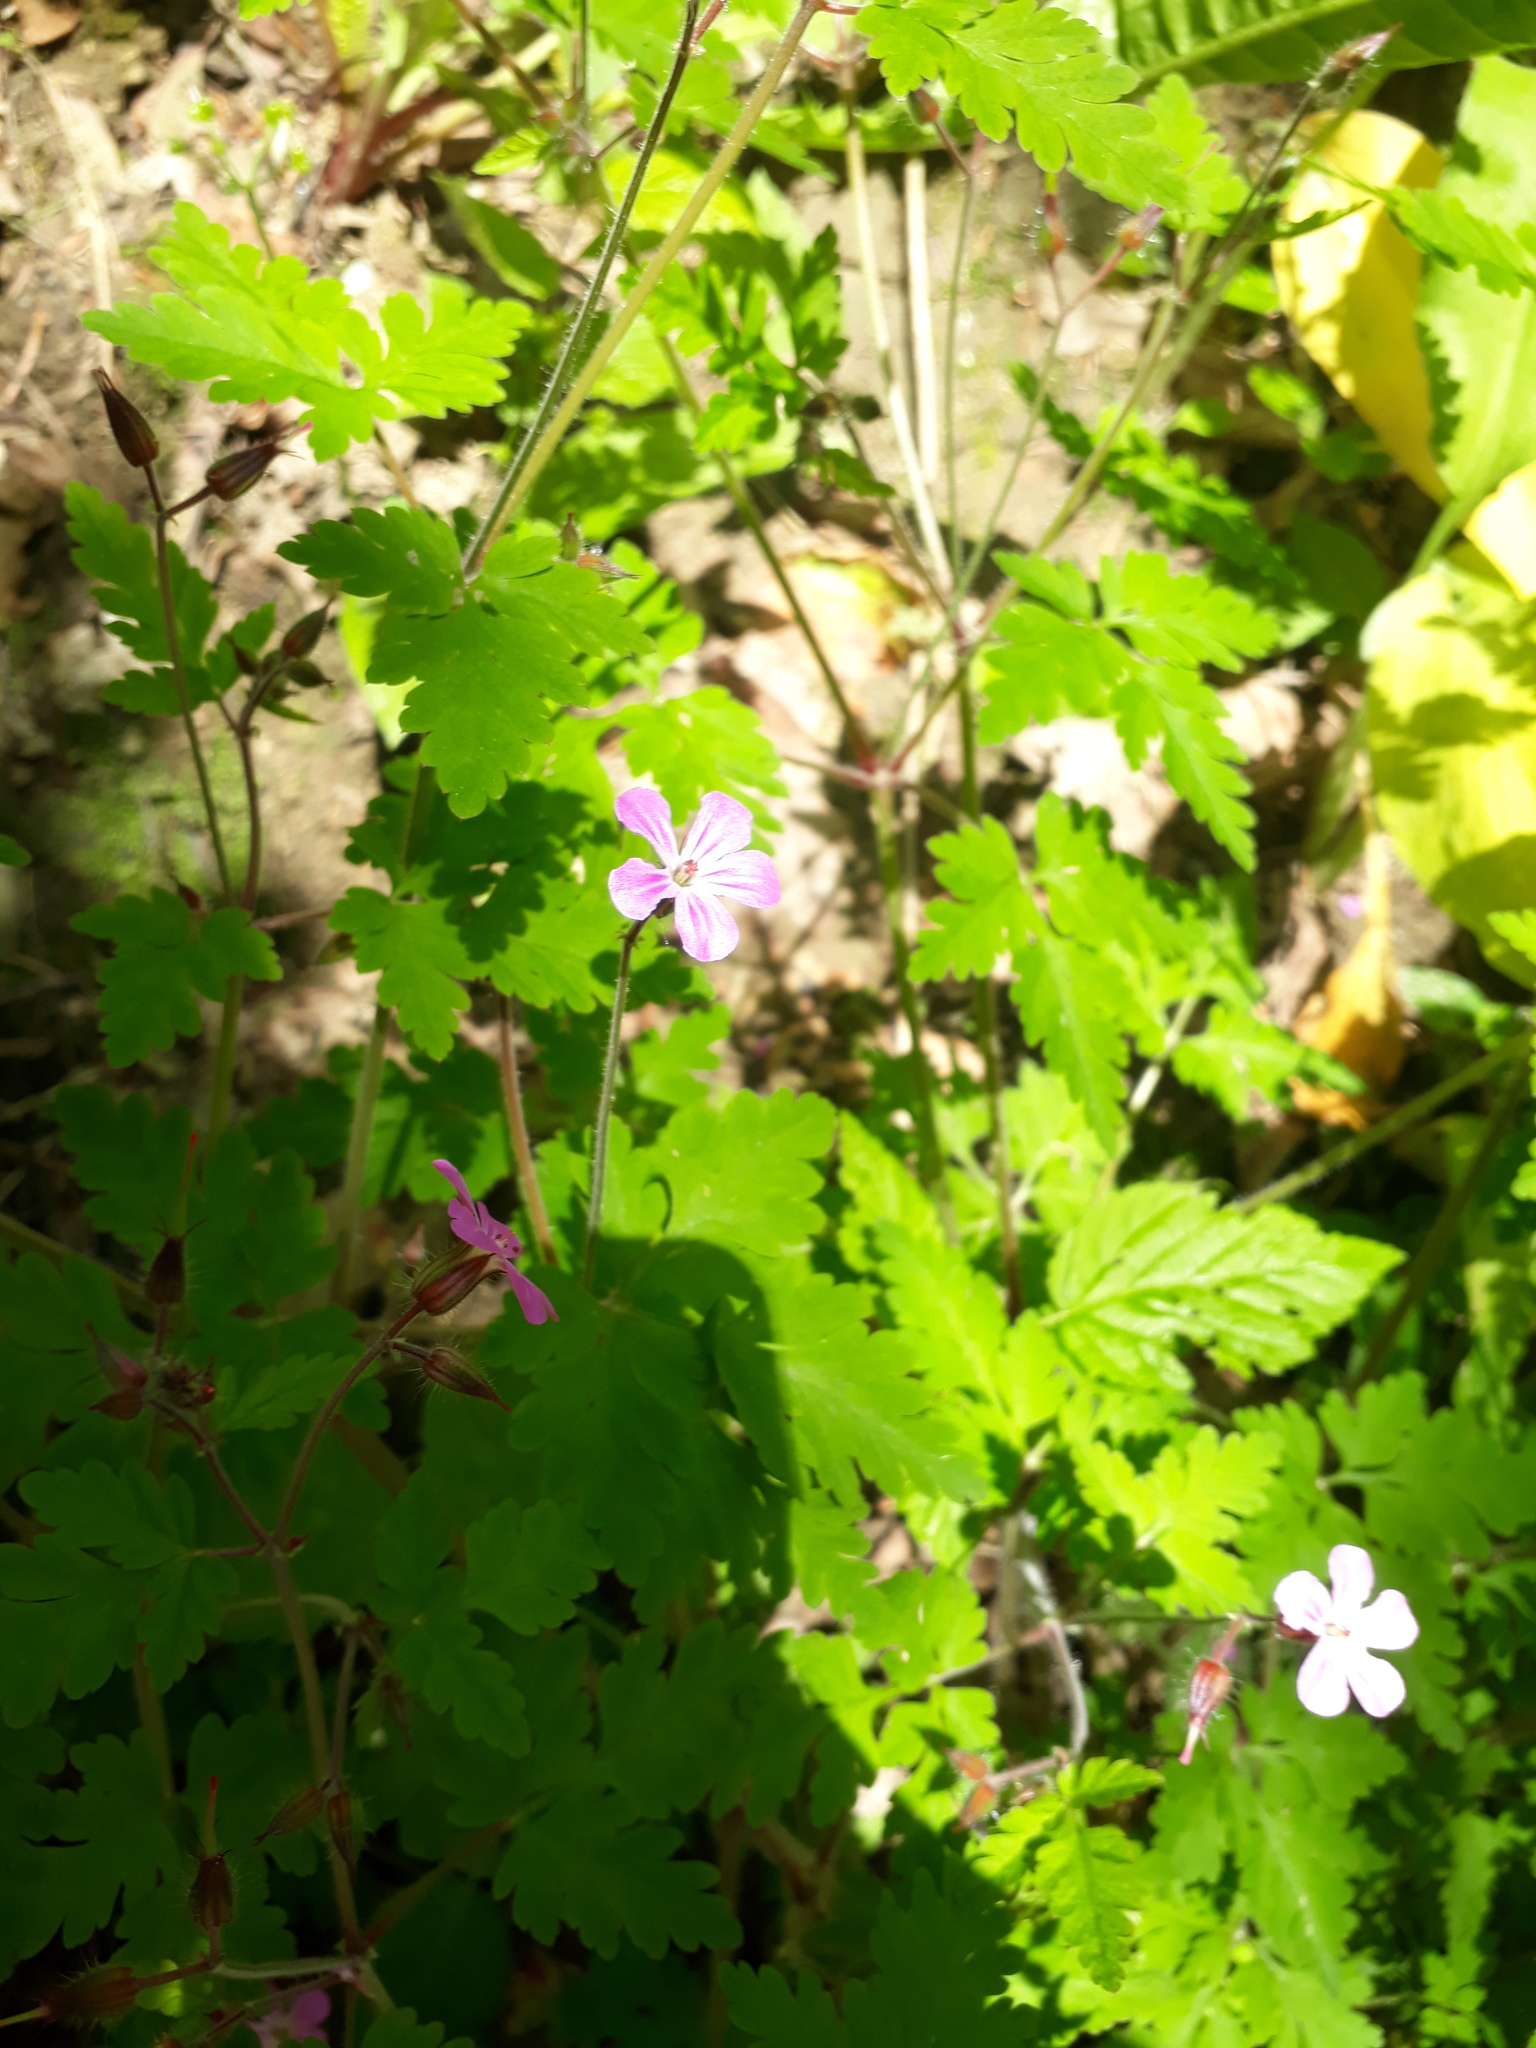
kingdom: Plantae
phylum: Tracheophyta
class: Magnoliopsida
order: Geraniales
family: Geraniaceae
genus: Geranium
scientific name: Geranium robertianum
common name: Herb-robert
